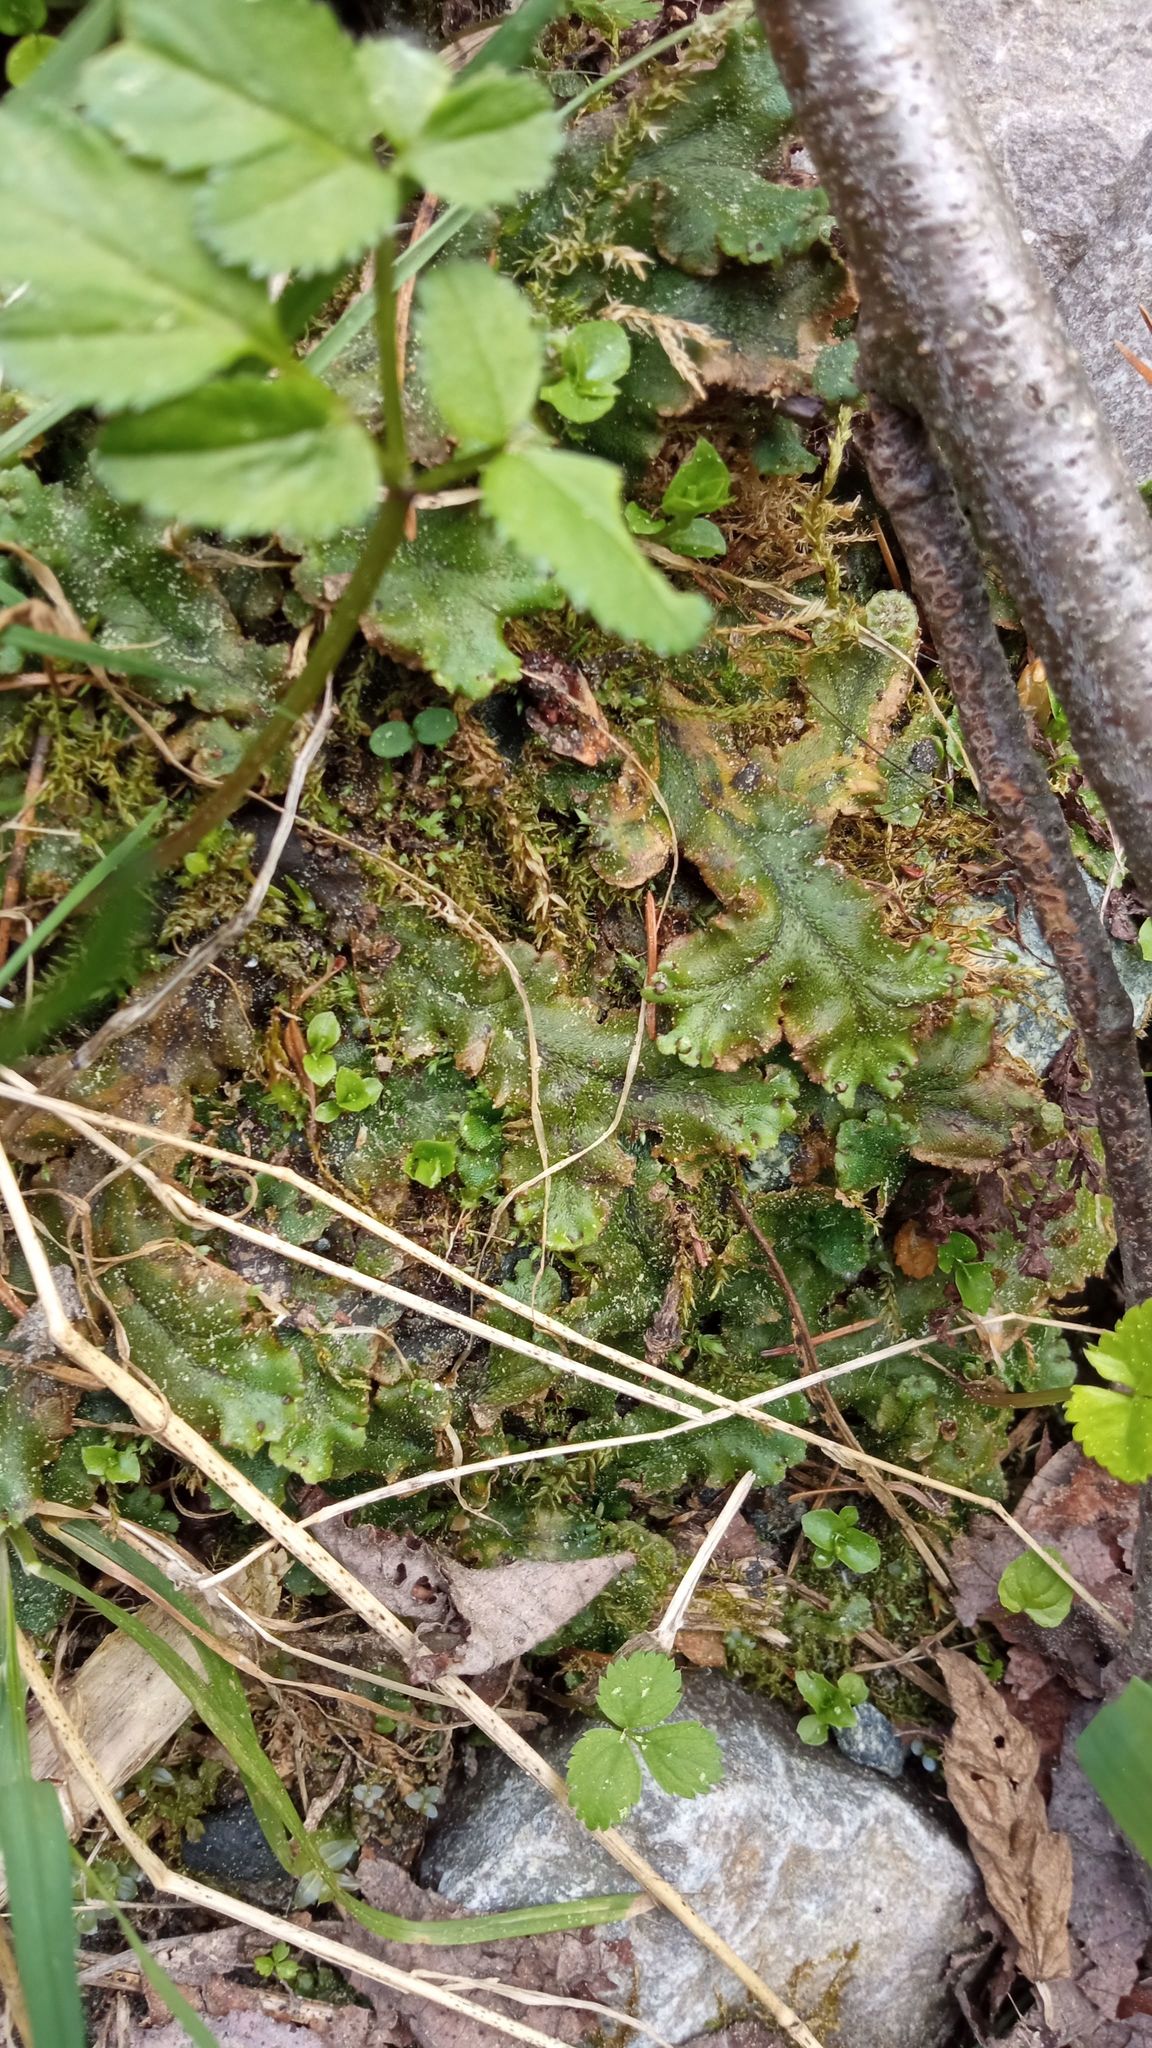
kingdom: Plantae
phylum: Marchantiophyta
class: Marchantiopsida
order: Marchantiales
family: Marchantiaceae
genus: Marchantia
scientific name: Marchantia polymorpha
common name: Common liverwort
